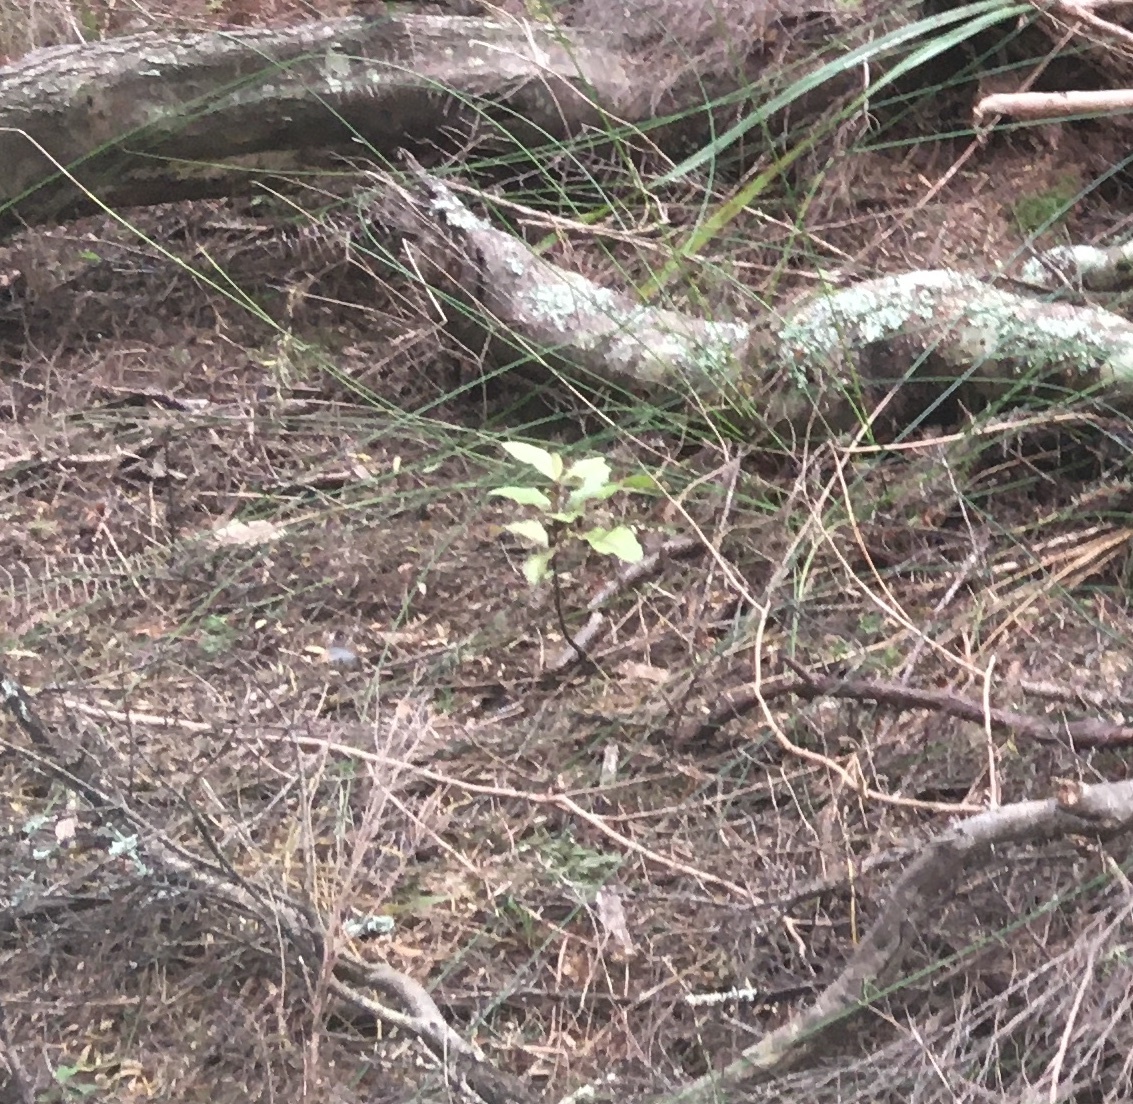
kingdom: Plantae
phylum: Tracheophyta
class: Magnoliopsida
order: Ericales
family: Primulaceae
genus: Myrsine
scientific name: Myrsine australis
